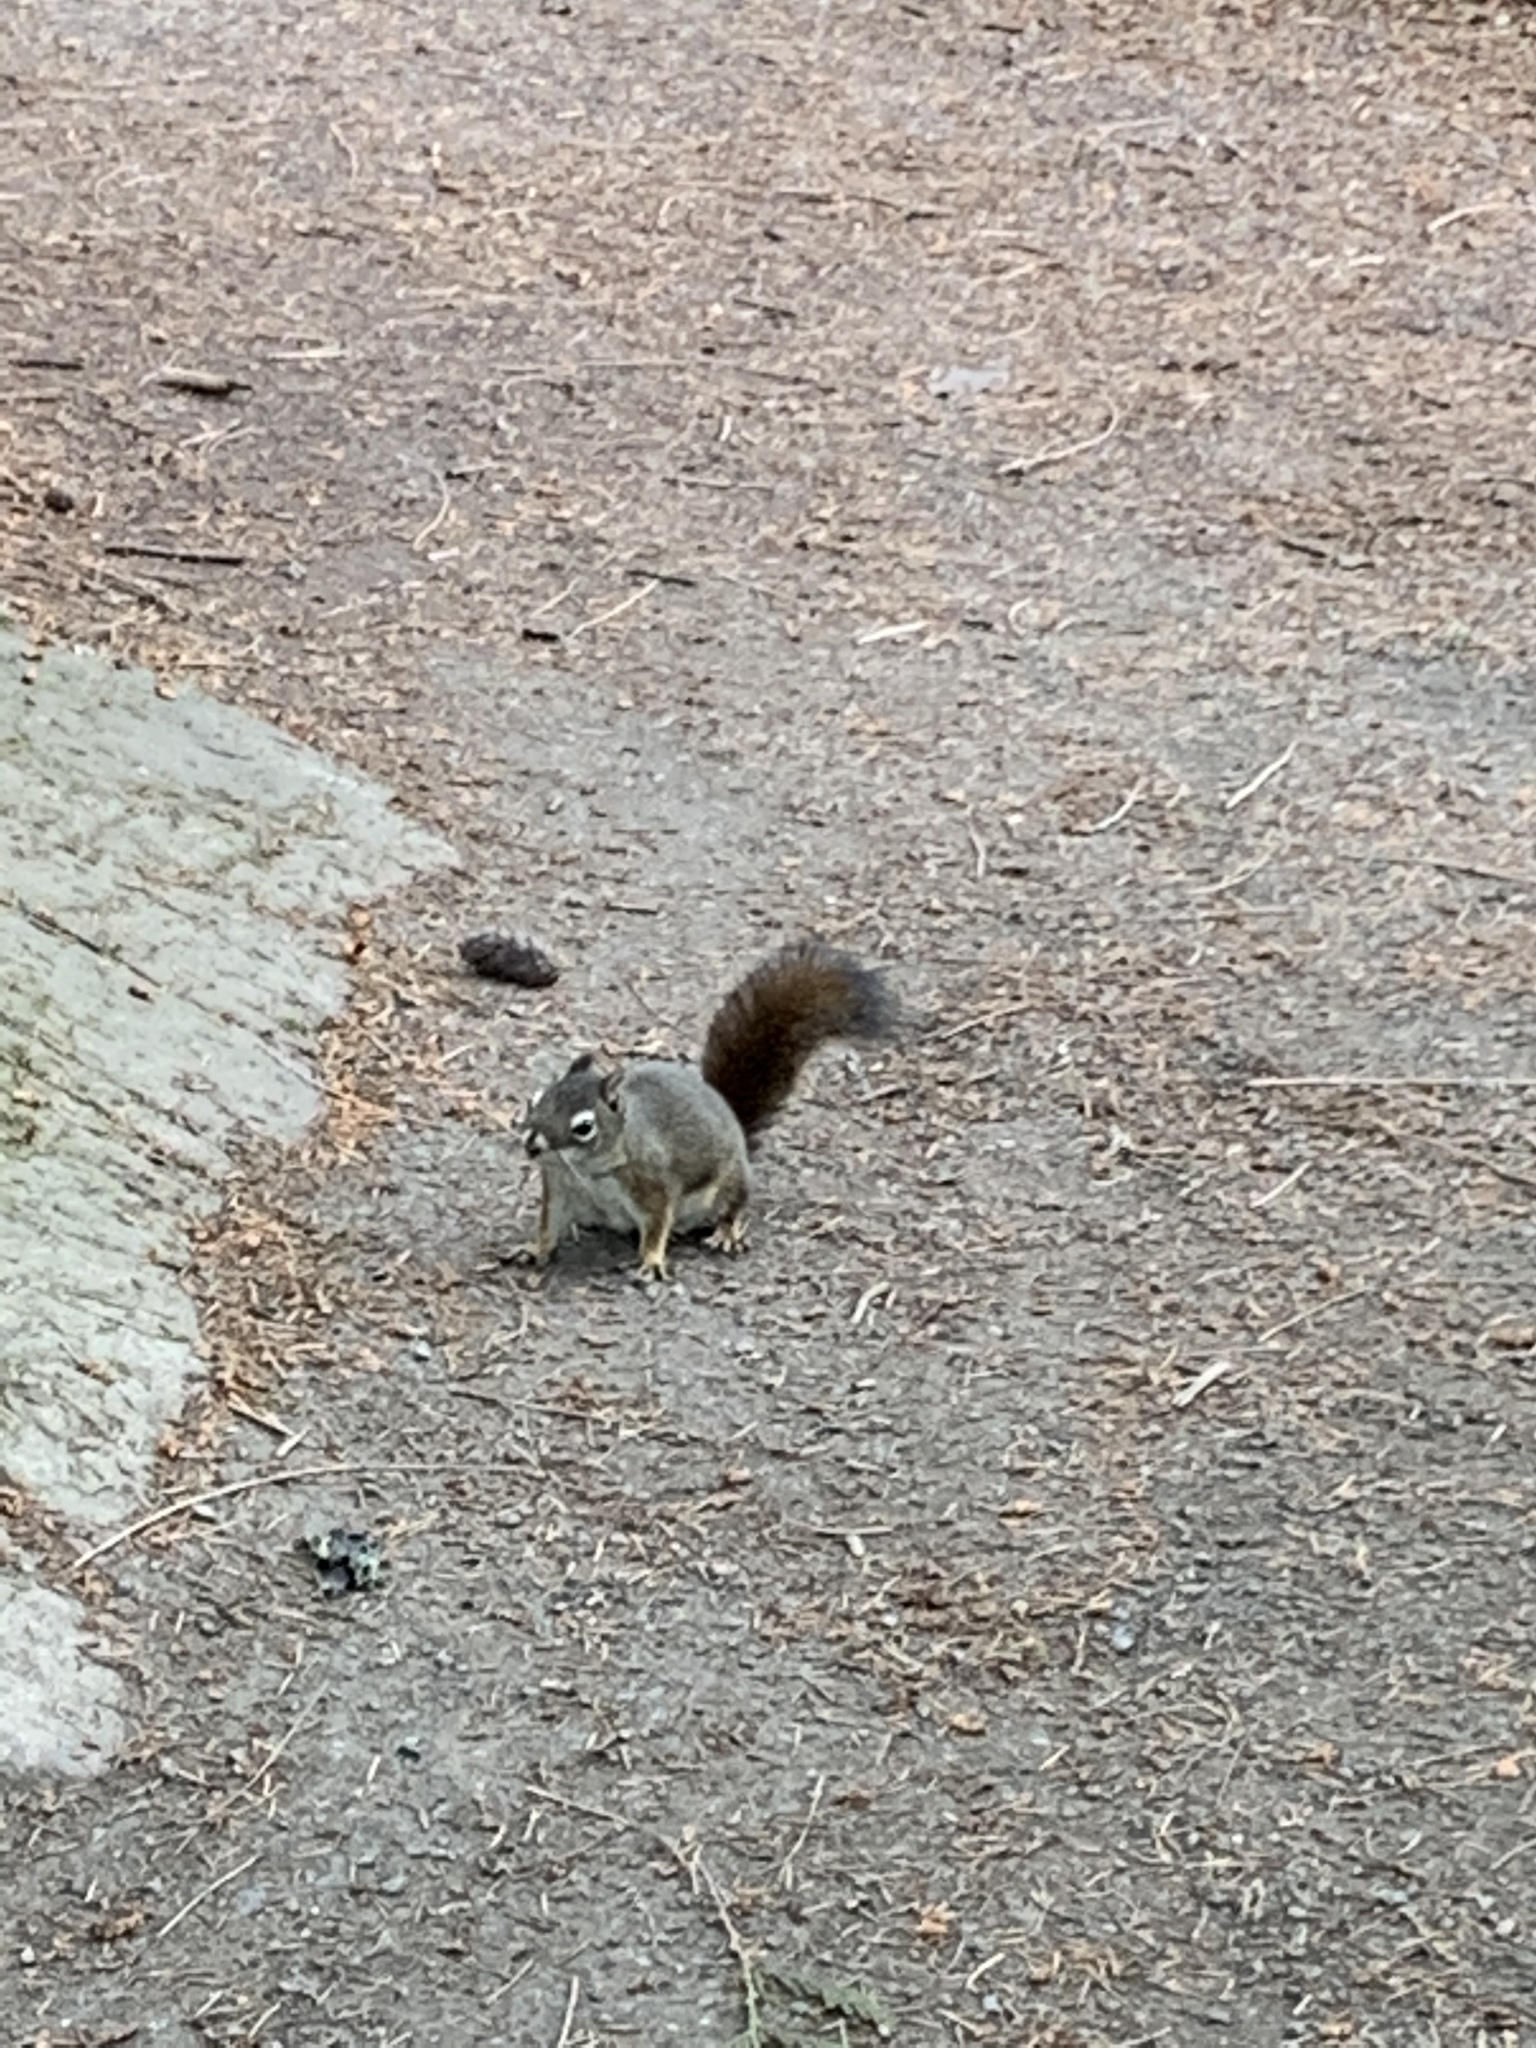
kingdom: Animalia
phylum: Chordata
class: Mammalia
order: Rodentia
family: Sciuridae
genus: Tamiasciurus
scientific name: Tamiasciurus hudsonicus
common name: Red squirrel
